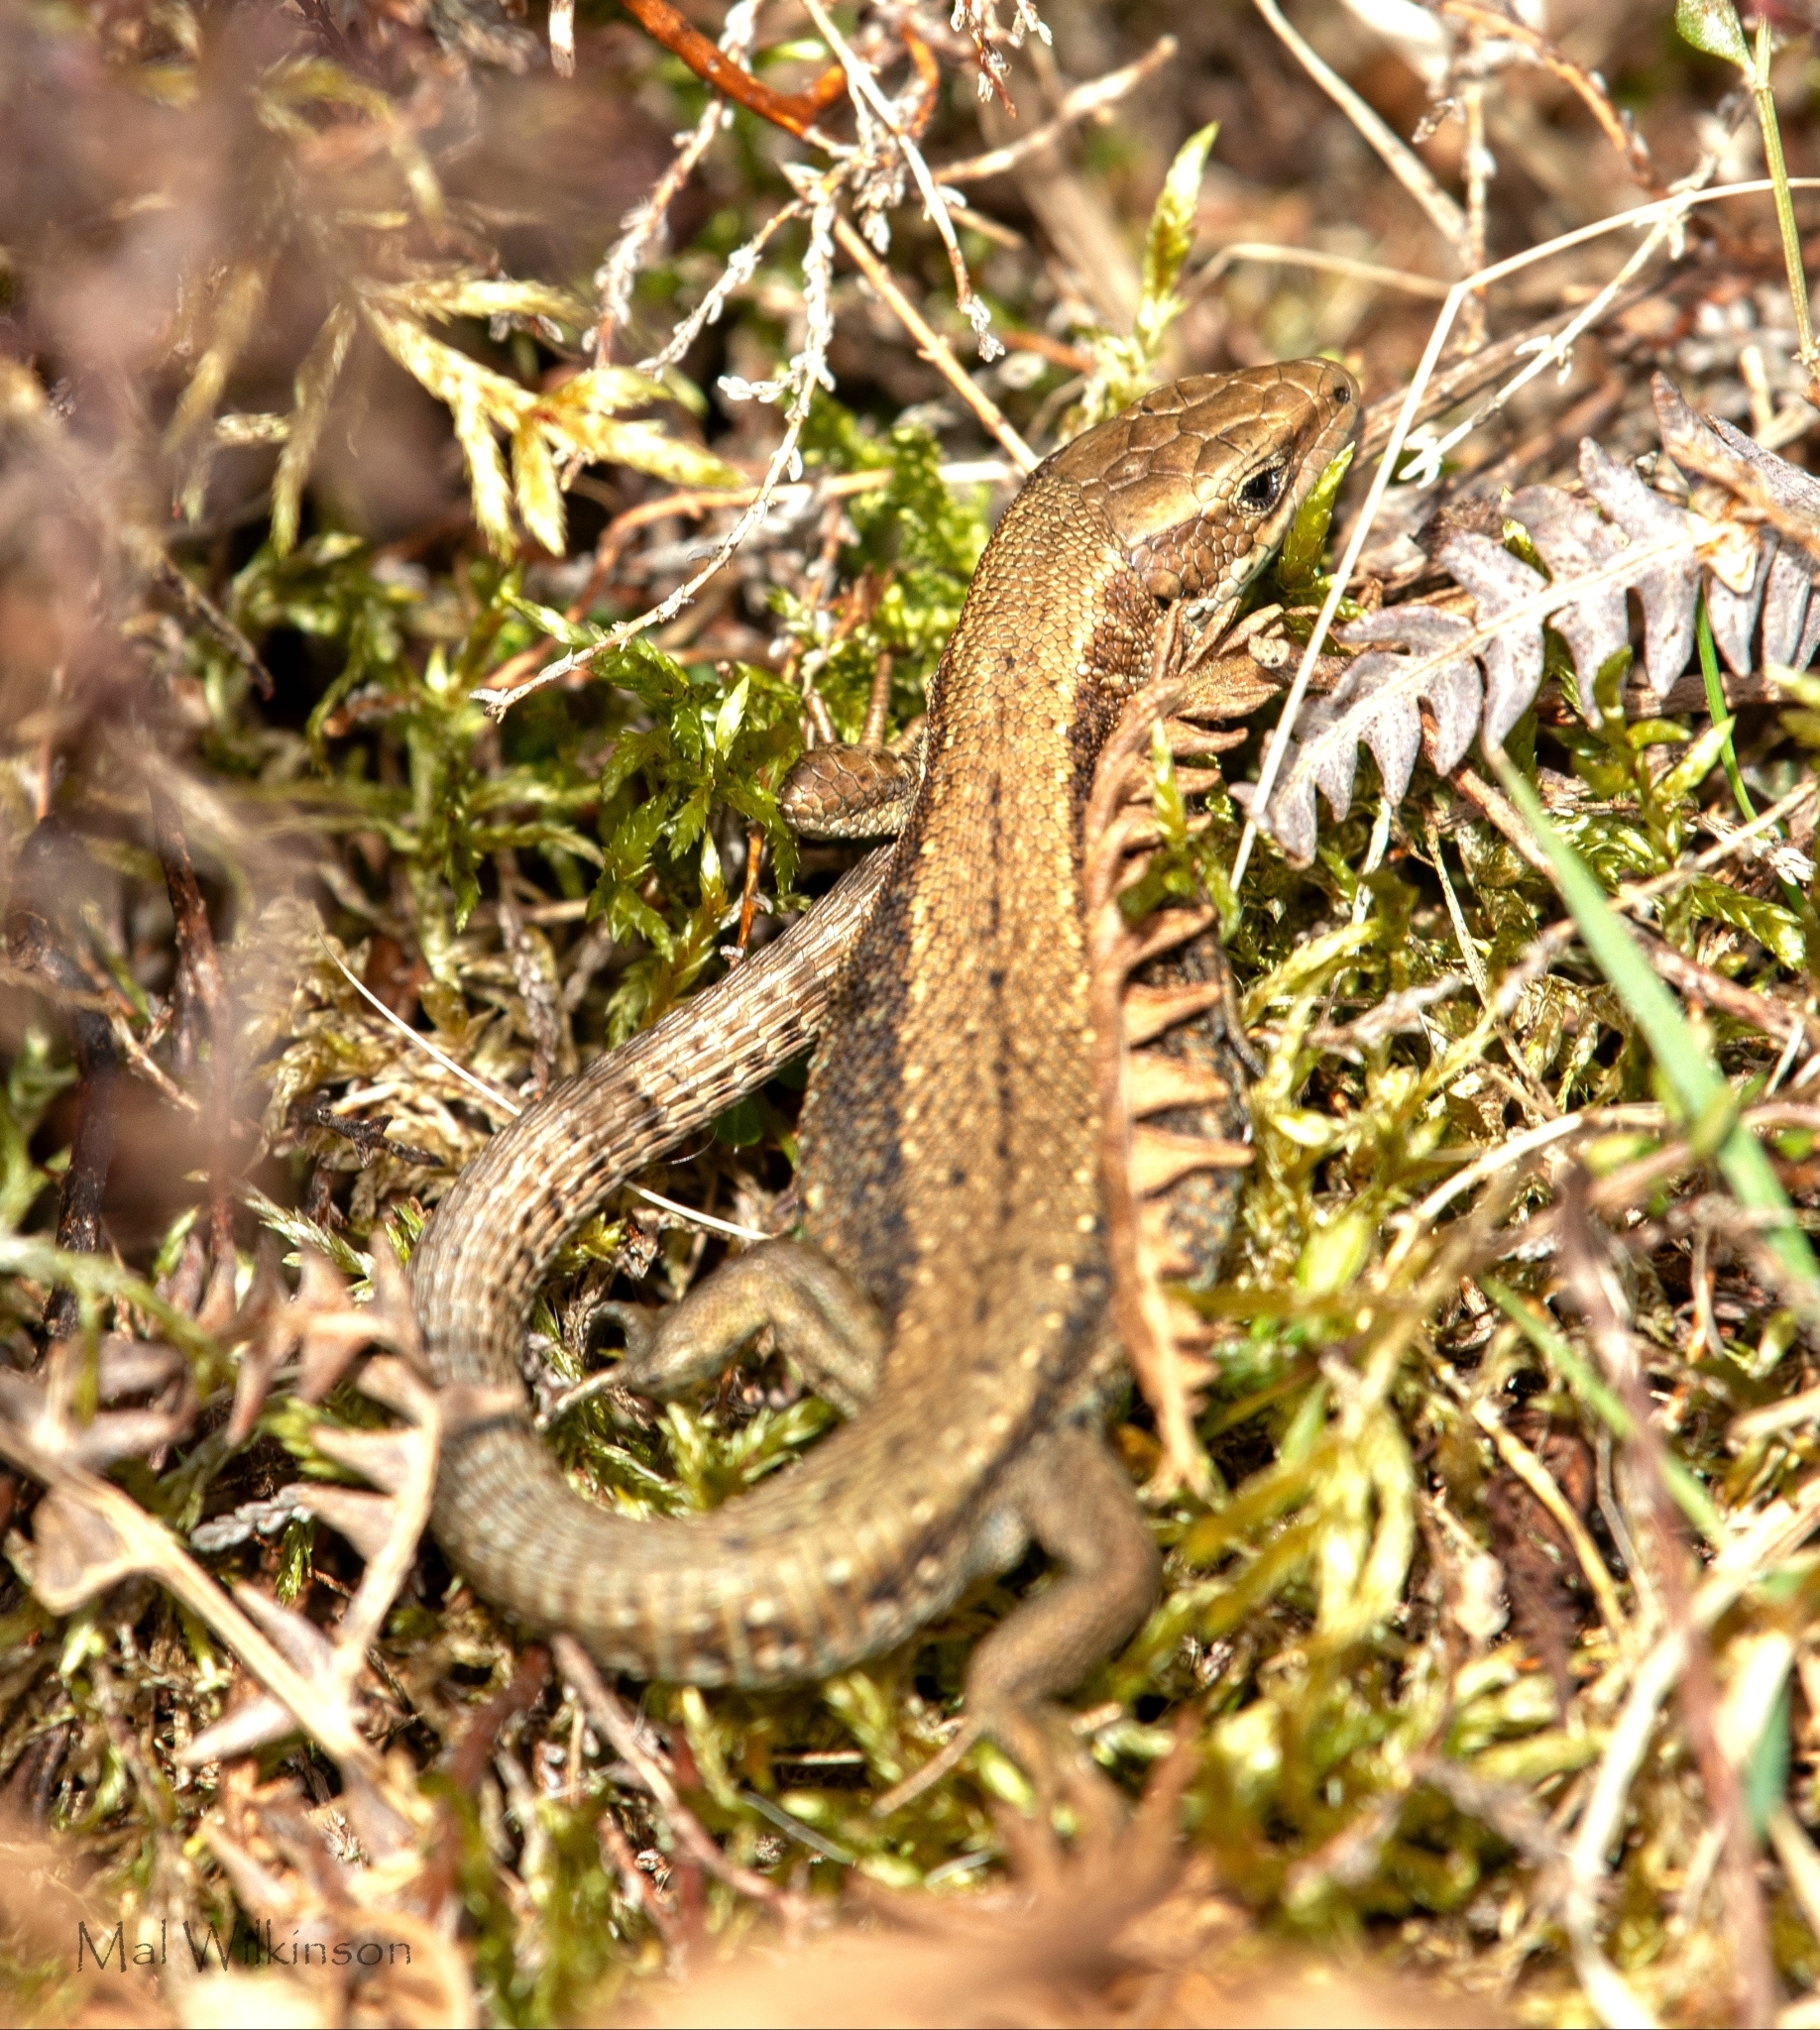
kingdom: Animalia
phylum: Chordata
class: Squamata
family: Lacertidae
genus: Zootoca
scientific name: Zootoca vivipara
